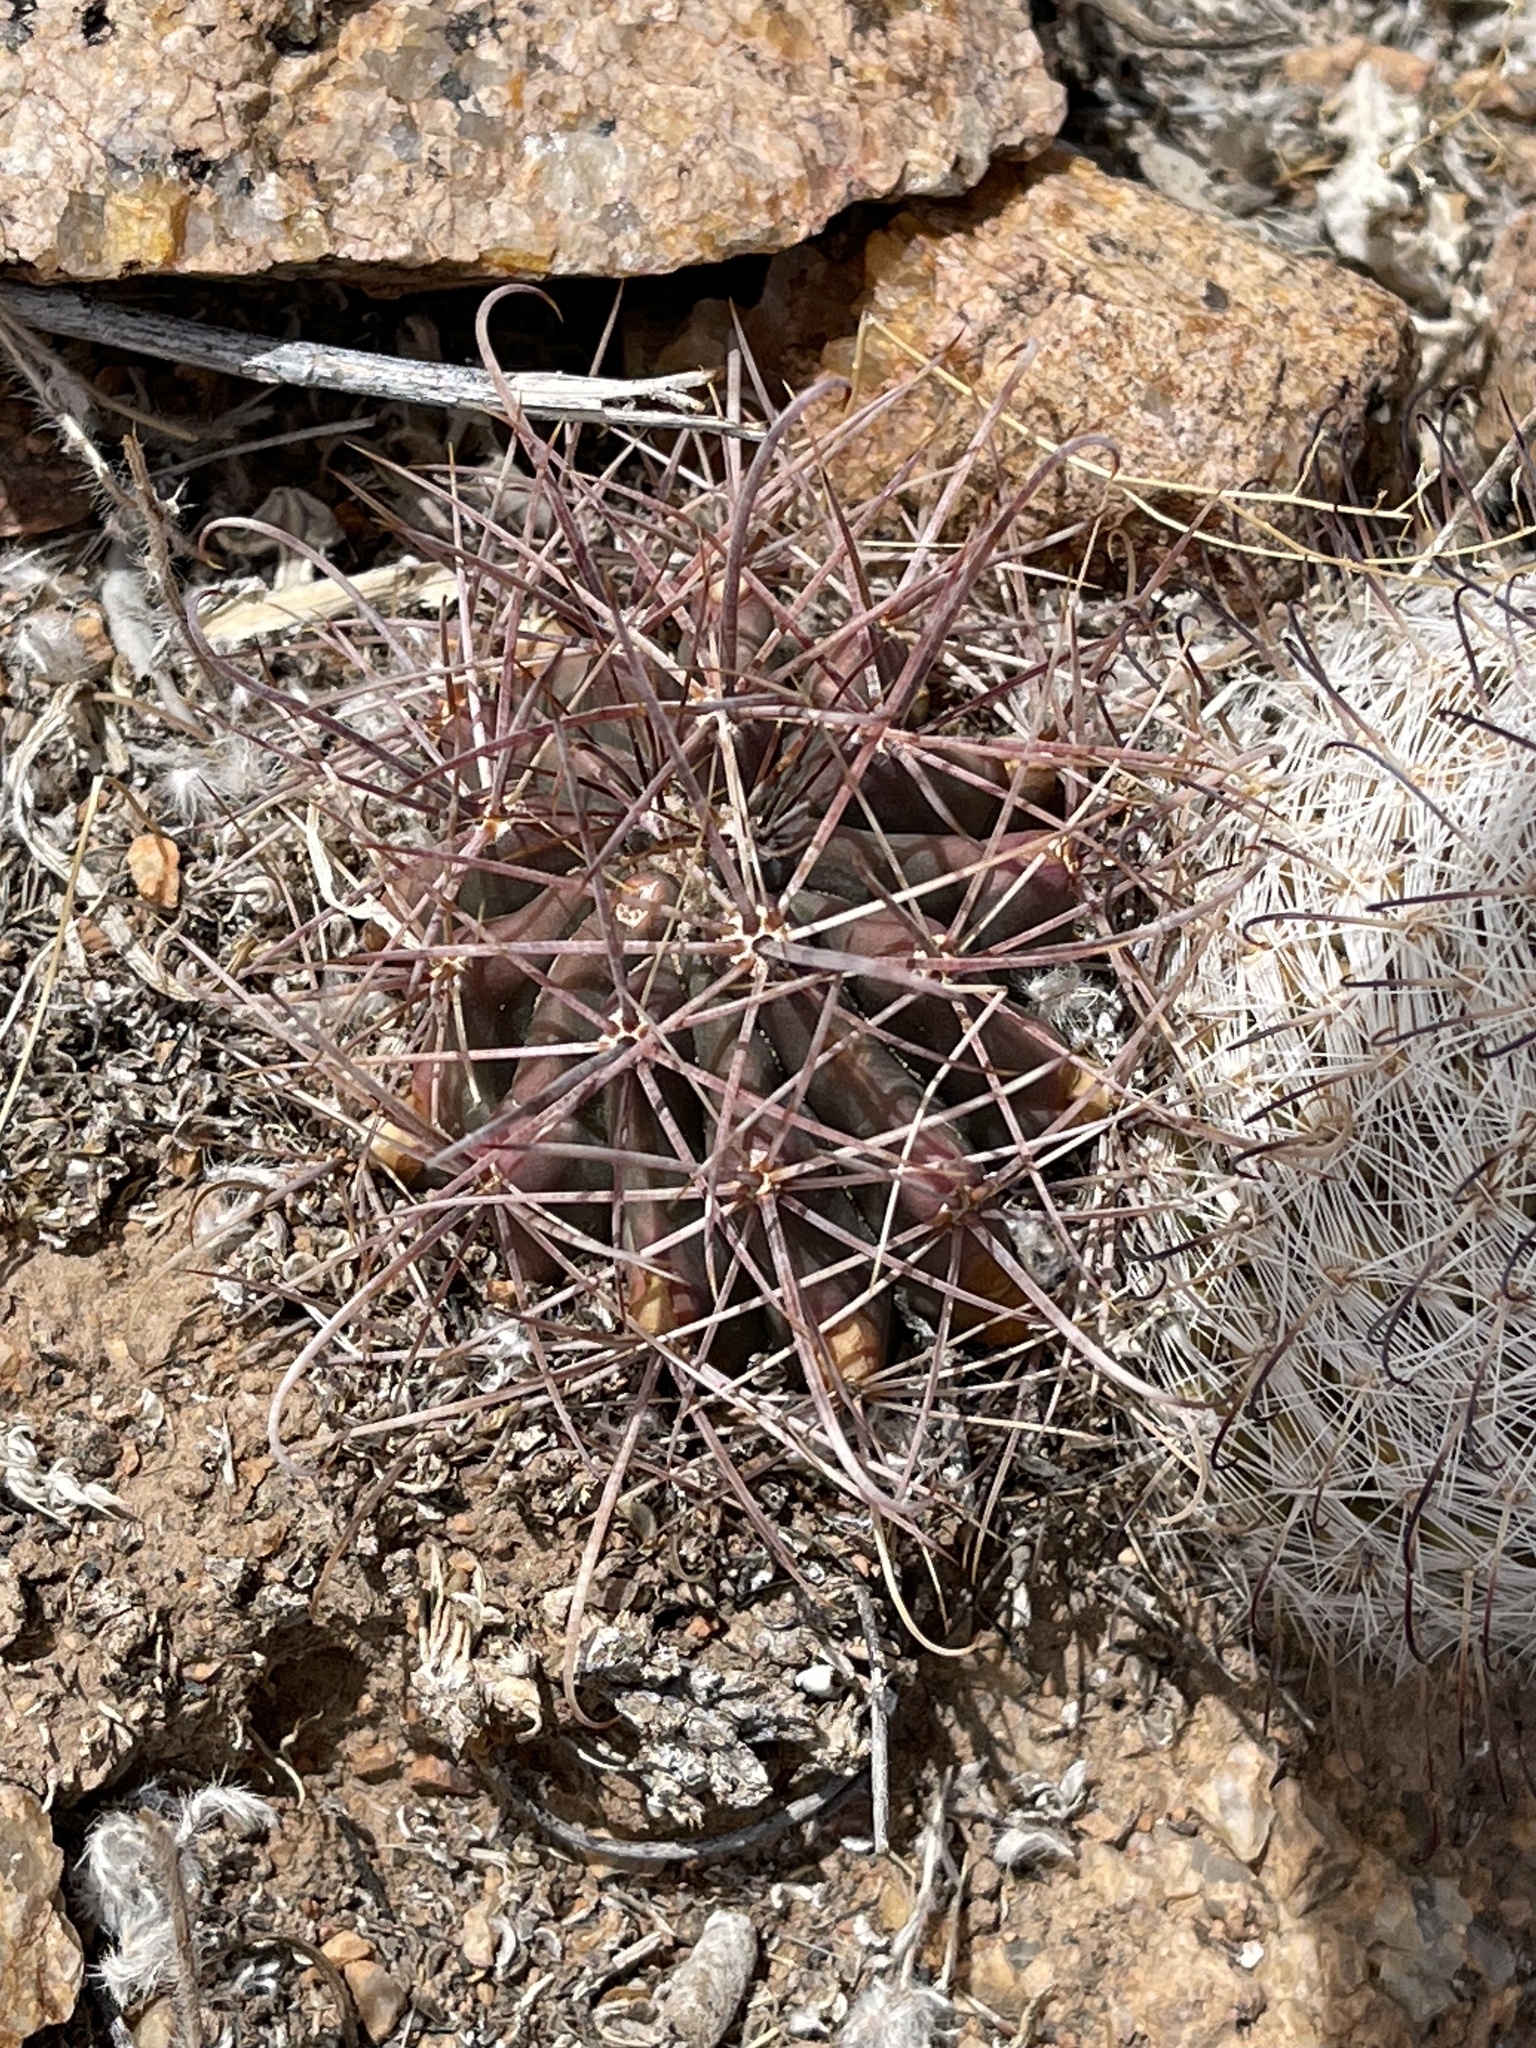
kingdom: Plantae
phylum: Tracheophyta
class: Magnoliopsida
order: Caryophyllales
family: Cactaceae
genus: Ferocactus
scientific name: Ferocactus wislizeni
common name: Candy barrel cactus
